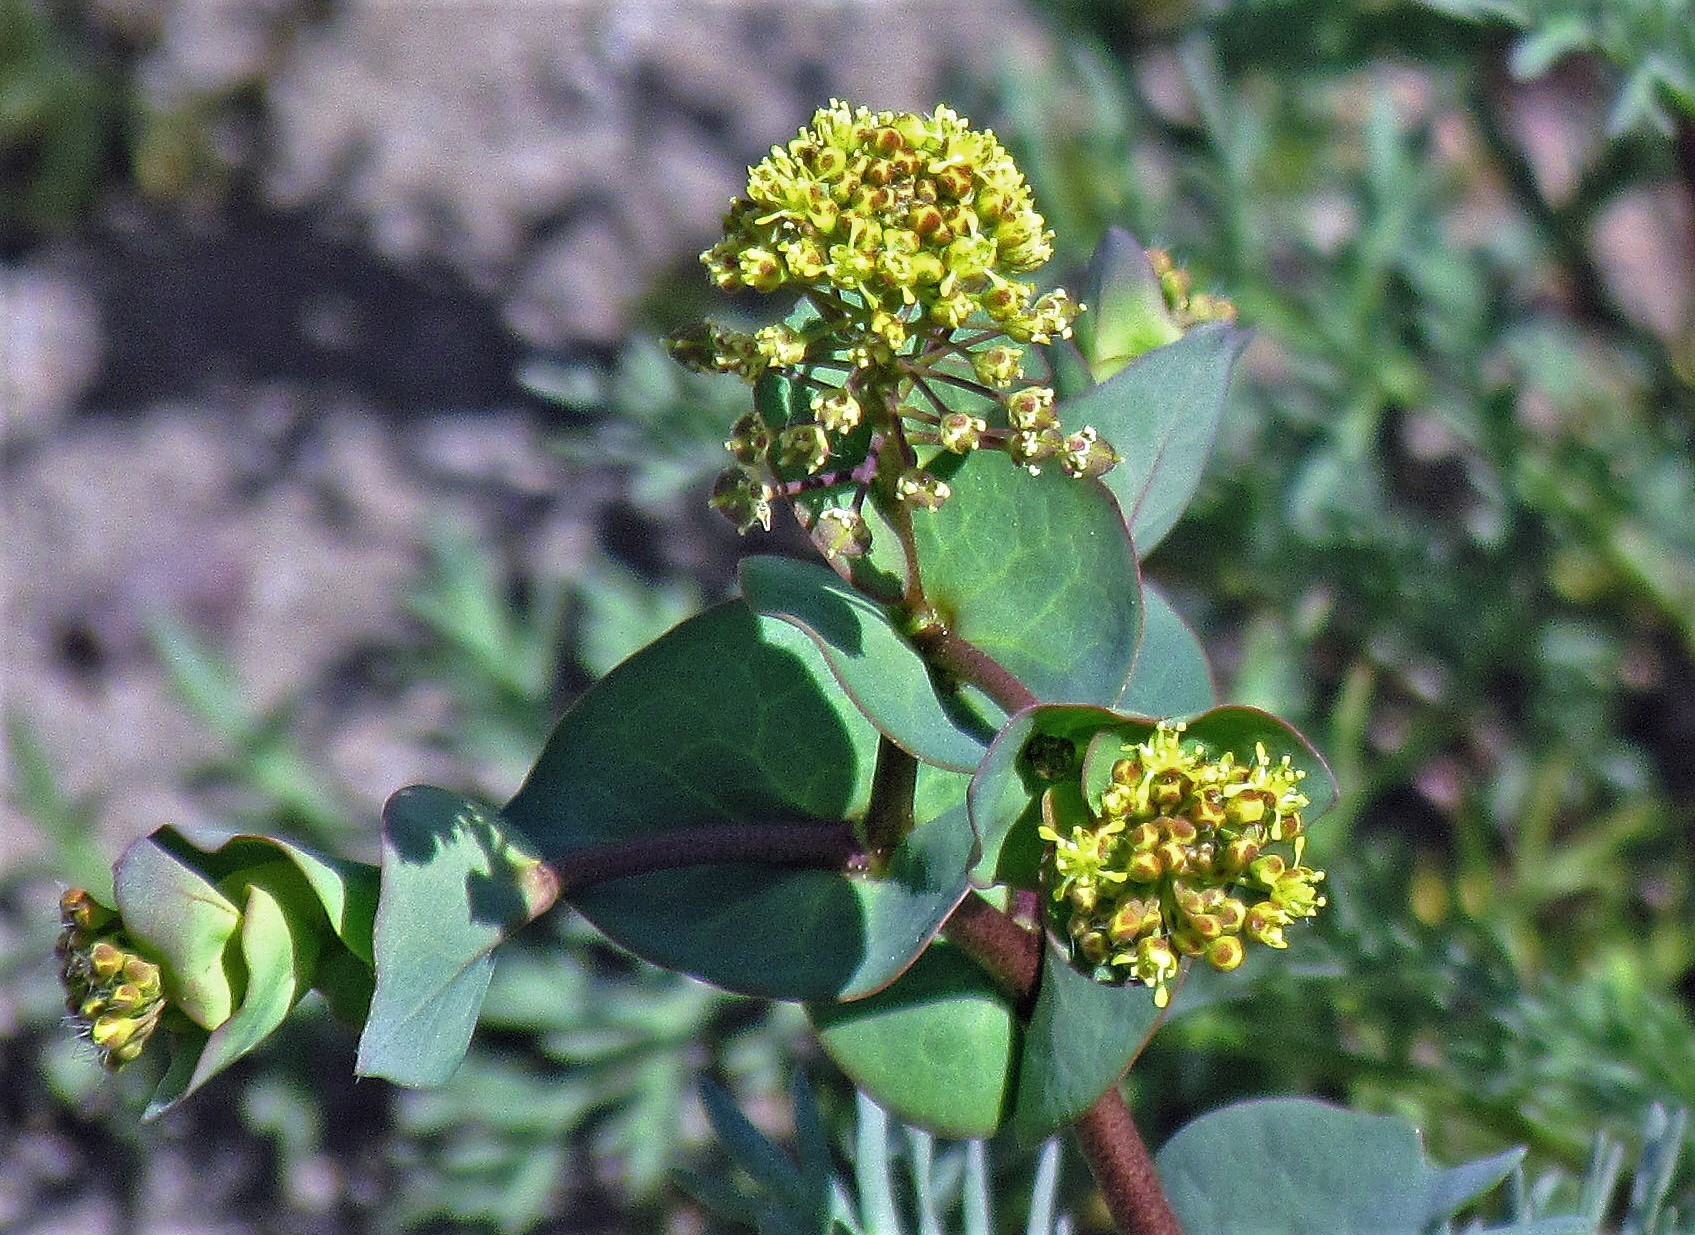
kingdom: Plantae
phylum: Tracheophyta
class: Magnoliopsida
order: Brassicales
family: Brassicaceae
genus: Lepidium
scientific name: Lepidium perfoliatum
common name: Perfoliate pepperwort
